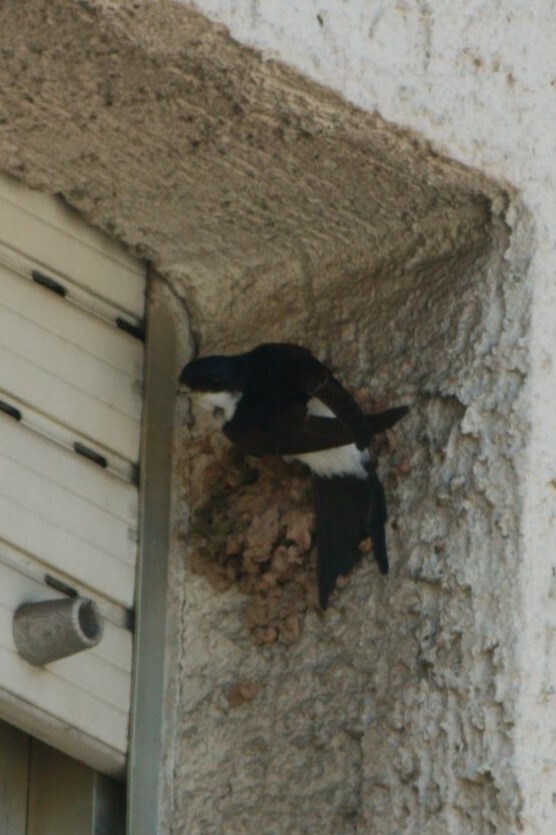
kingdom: Animalia
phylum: Chordata
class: Aves
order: Passeriformes
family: Hirundinidae
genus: Delichon
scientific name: Delichon urbicum
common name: Common house martin
